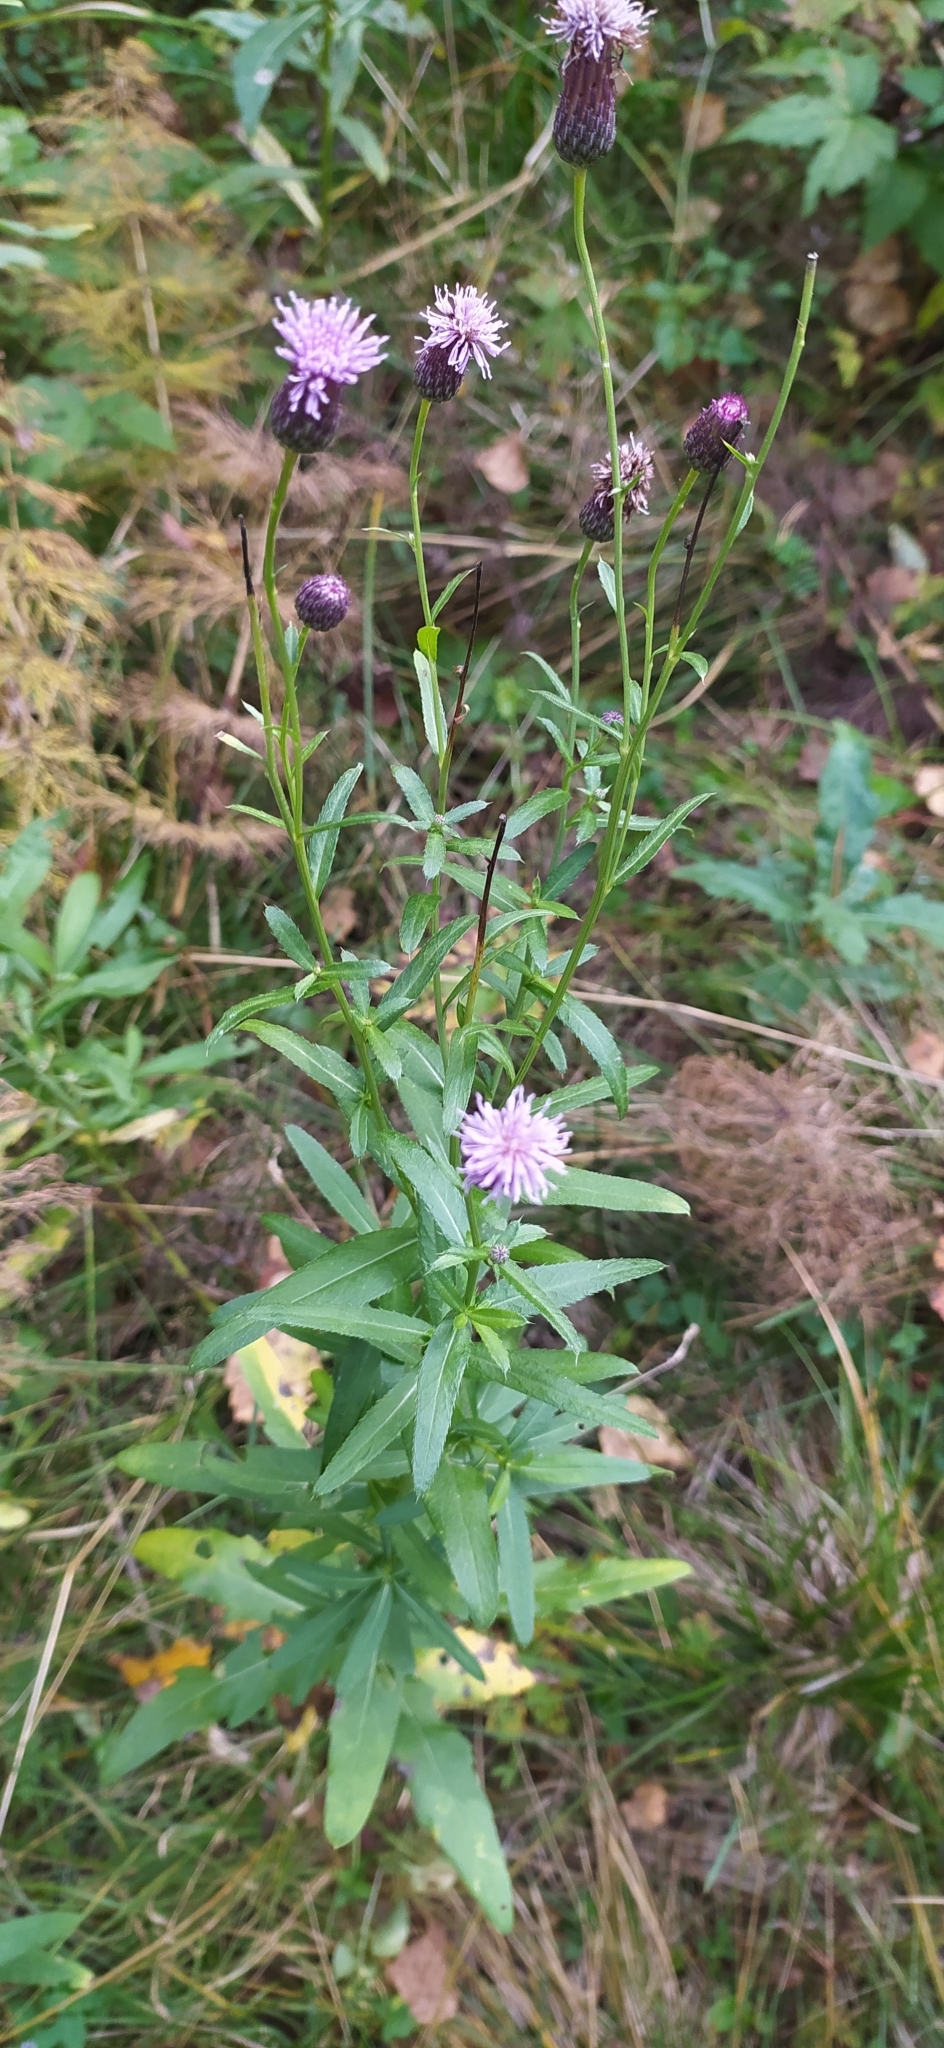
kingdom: Plantae
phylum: Tracheophyta
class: Magnoliopsida
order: Asterales
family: Asteraceae
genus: Cirsium
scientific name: Cirsium arvense
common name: Creeping thistle
